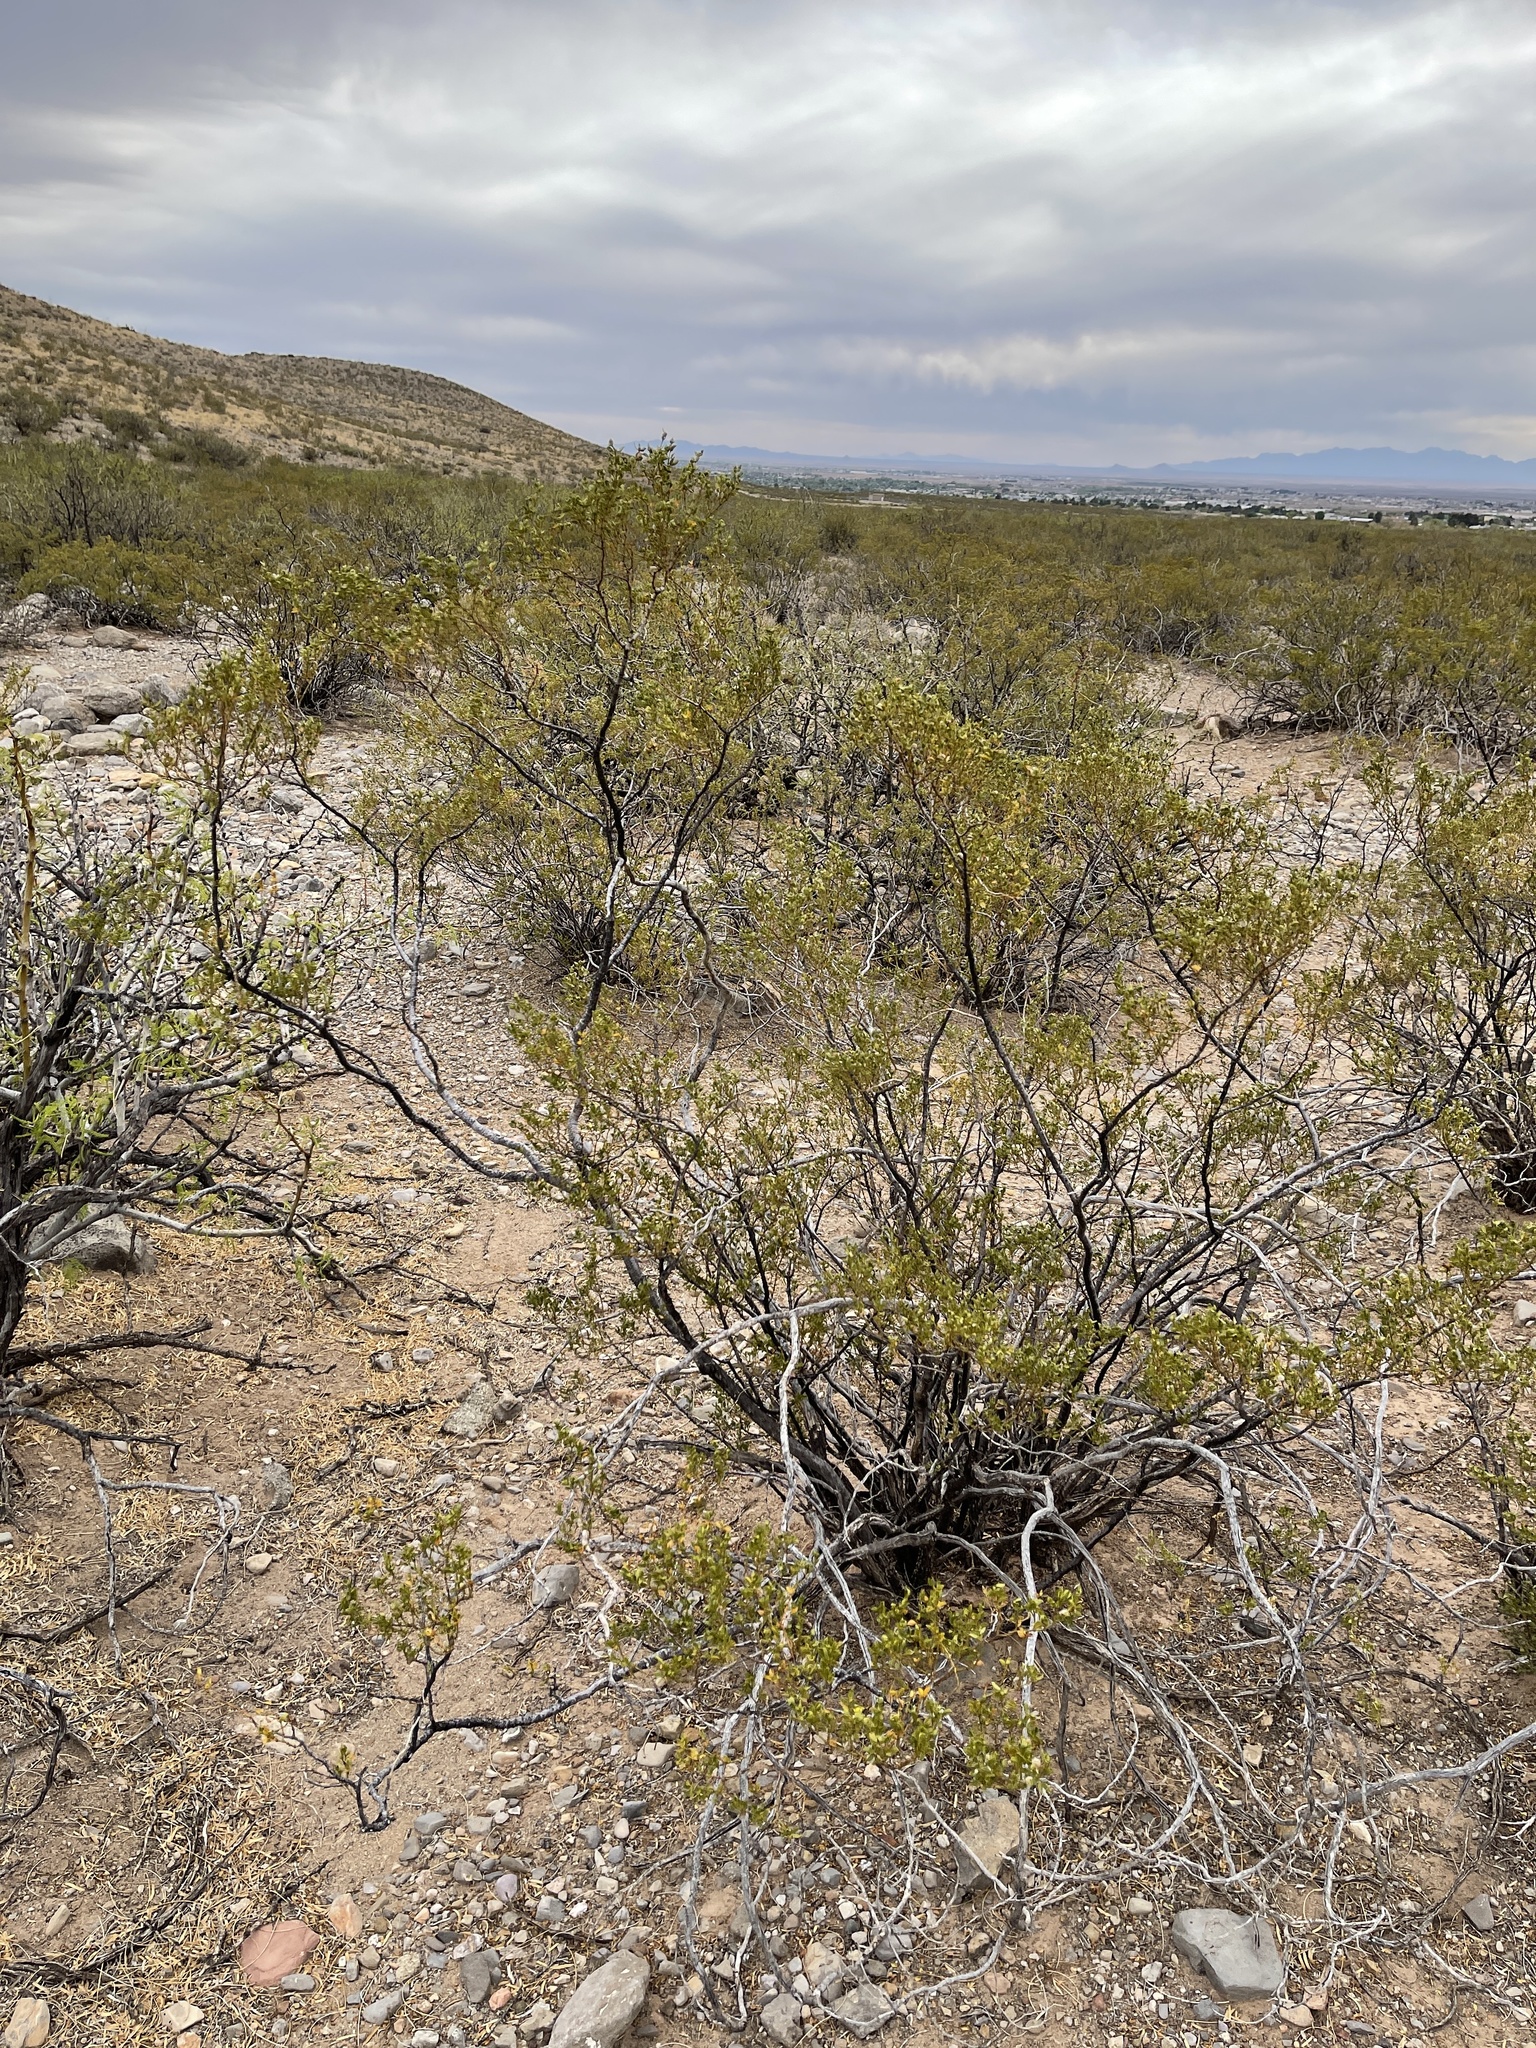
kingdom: Plantae
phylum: Tracheophyta
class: Magnoliopsida
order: Zygophyllales
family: Zygophyllaceae
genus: Larrea
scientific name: Larrea tridentata
